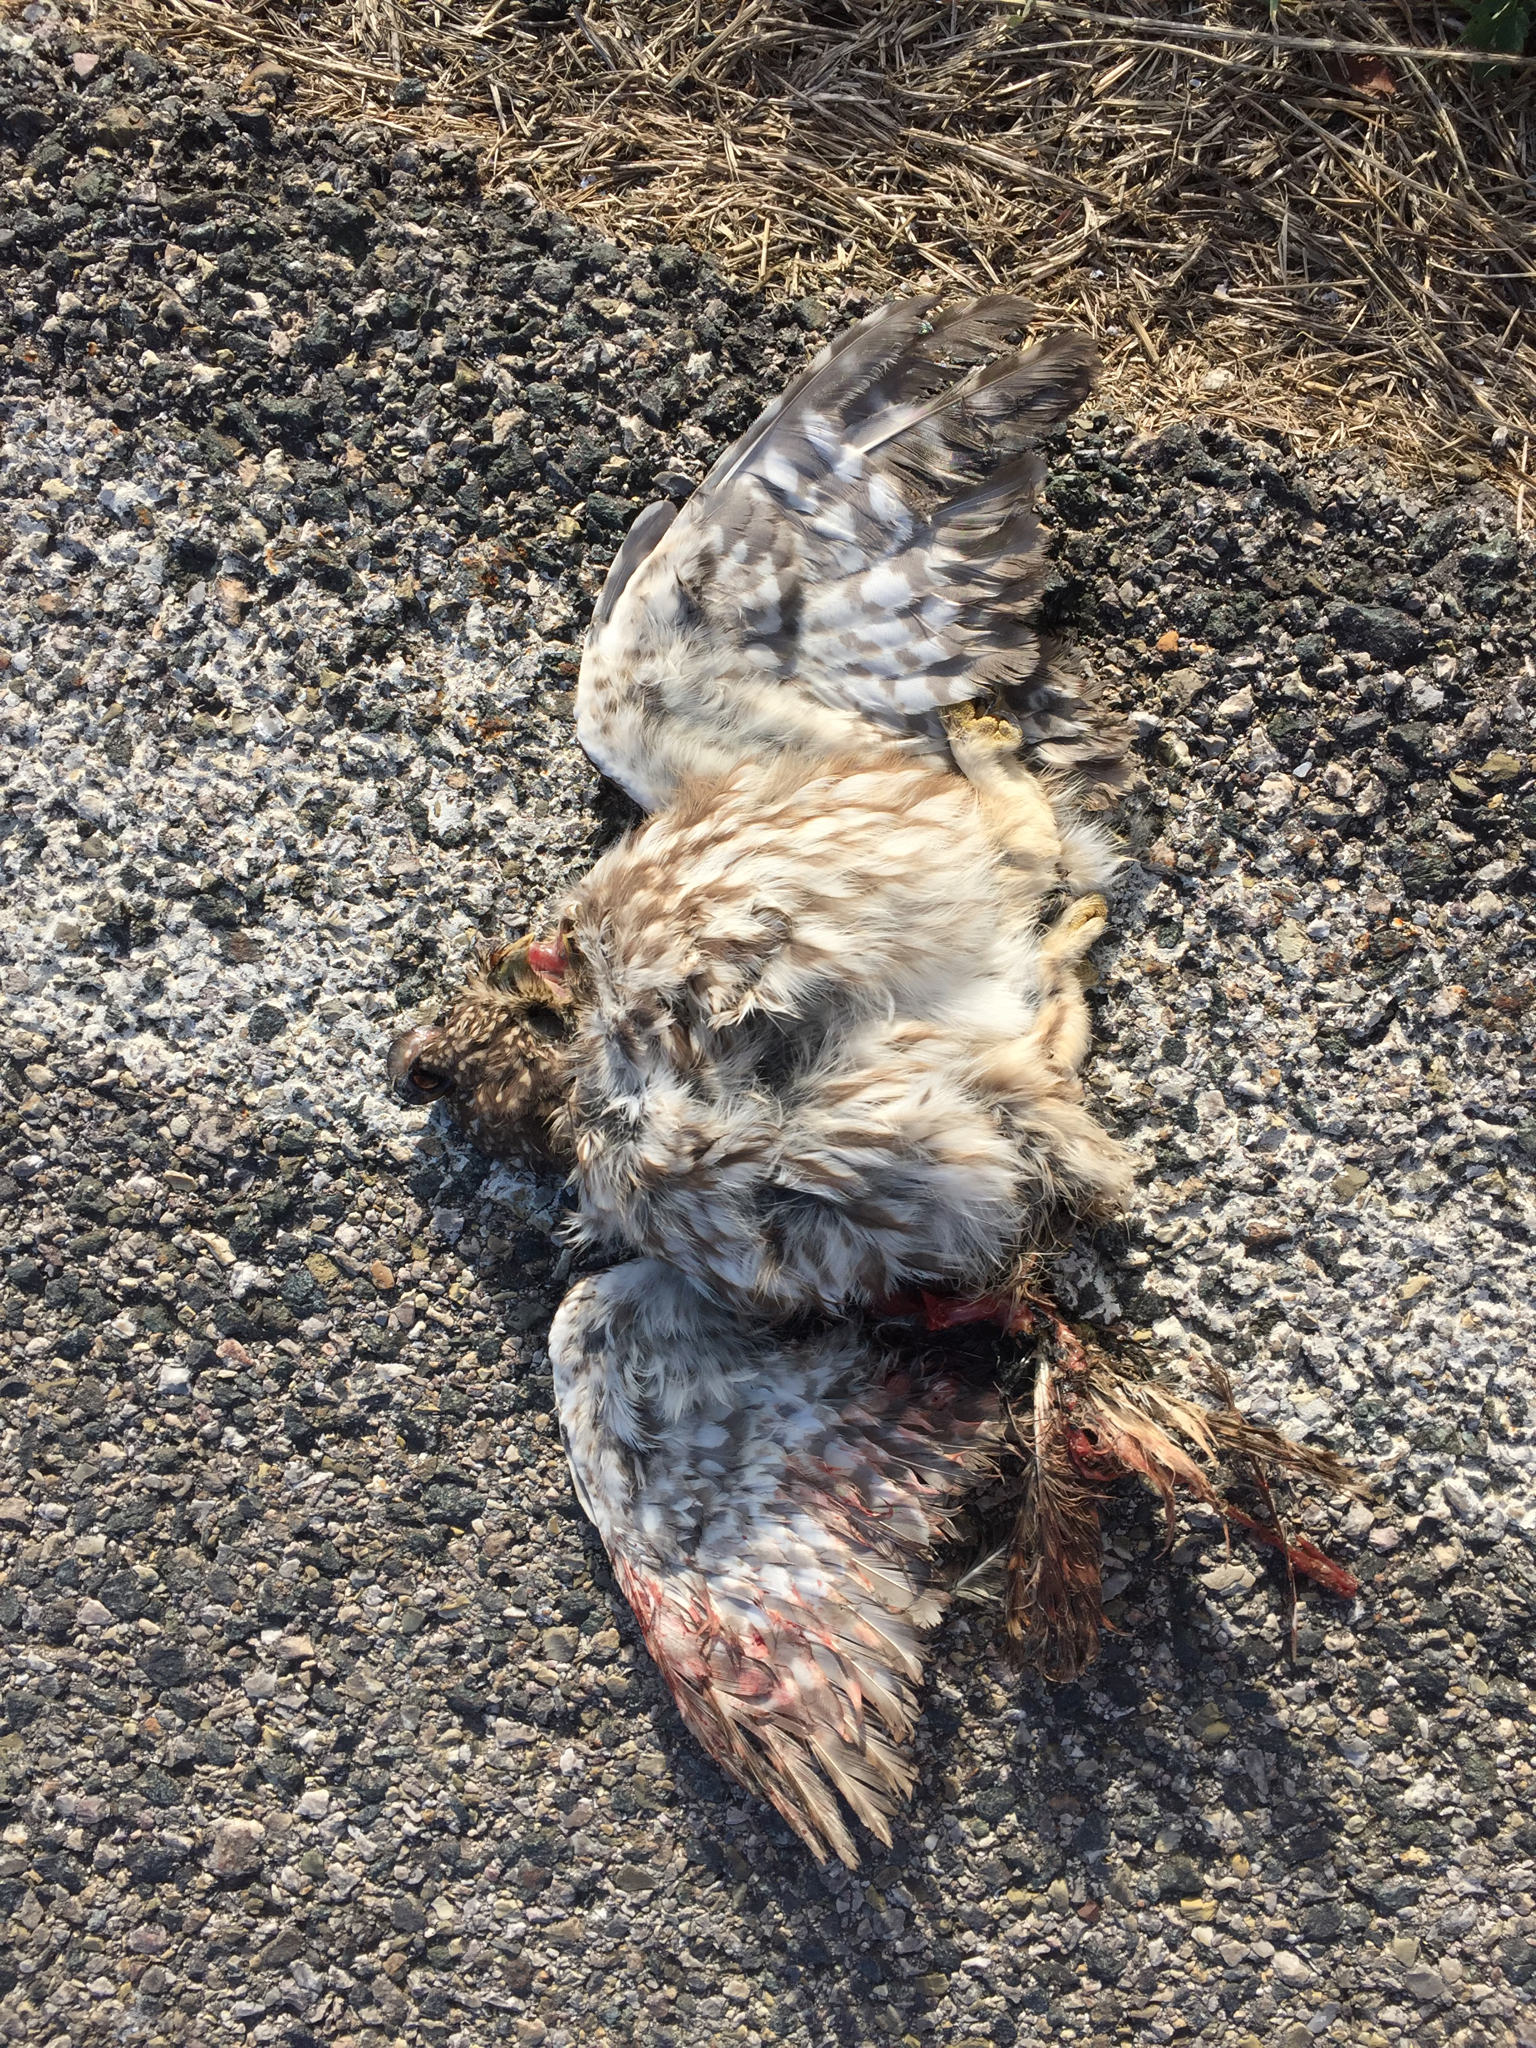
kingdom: Animalia
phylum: Chordata
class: Aves
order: Strigiformes
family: Strigidae
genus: Athene
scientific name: Athene noctua
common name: Little owl
